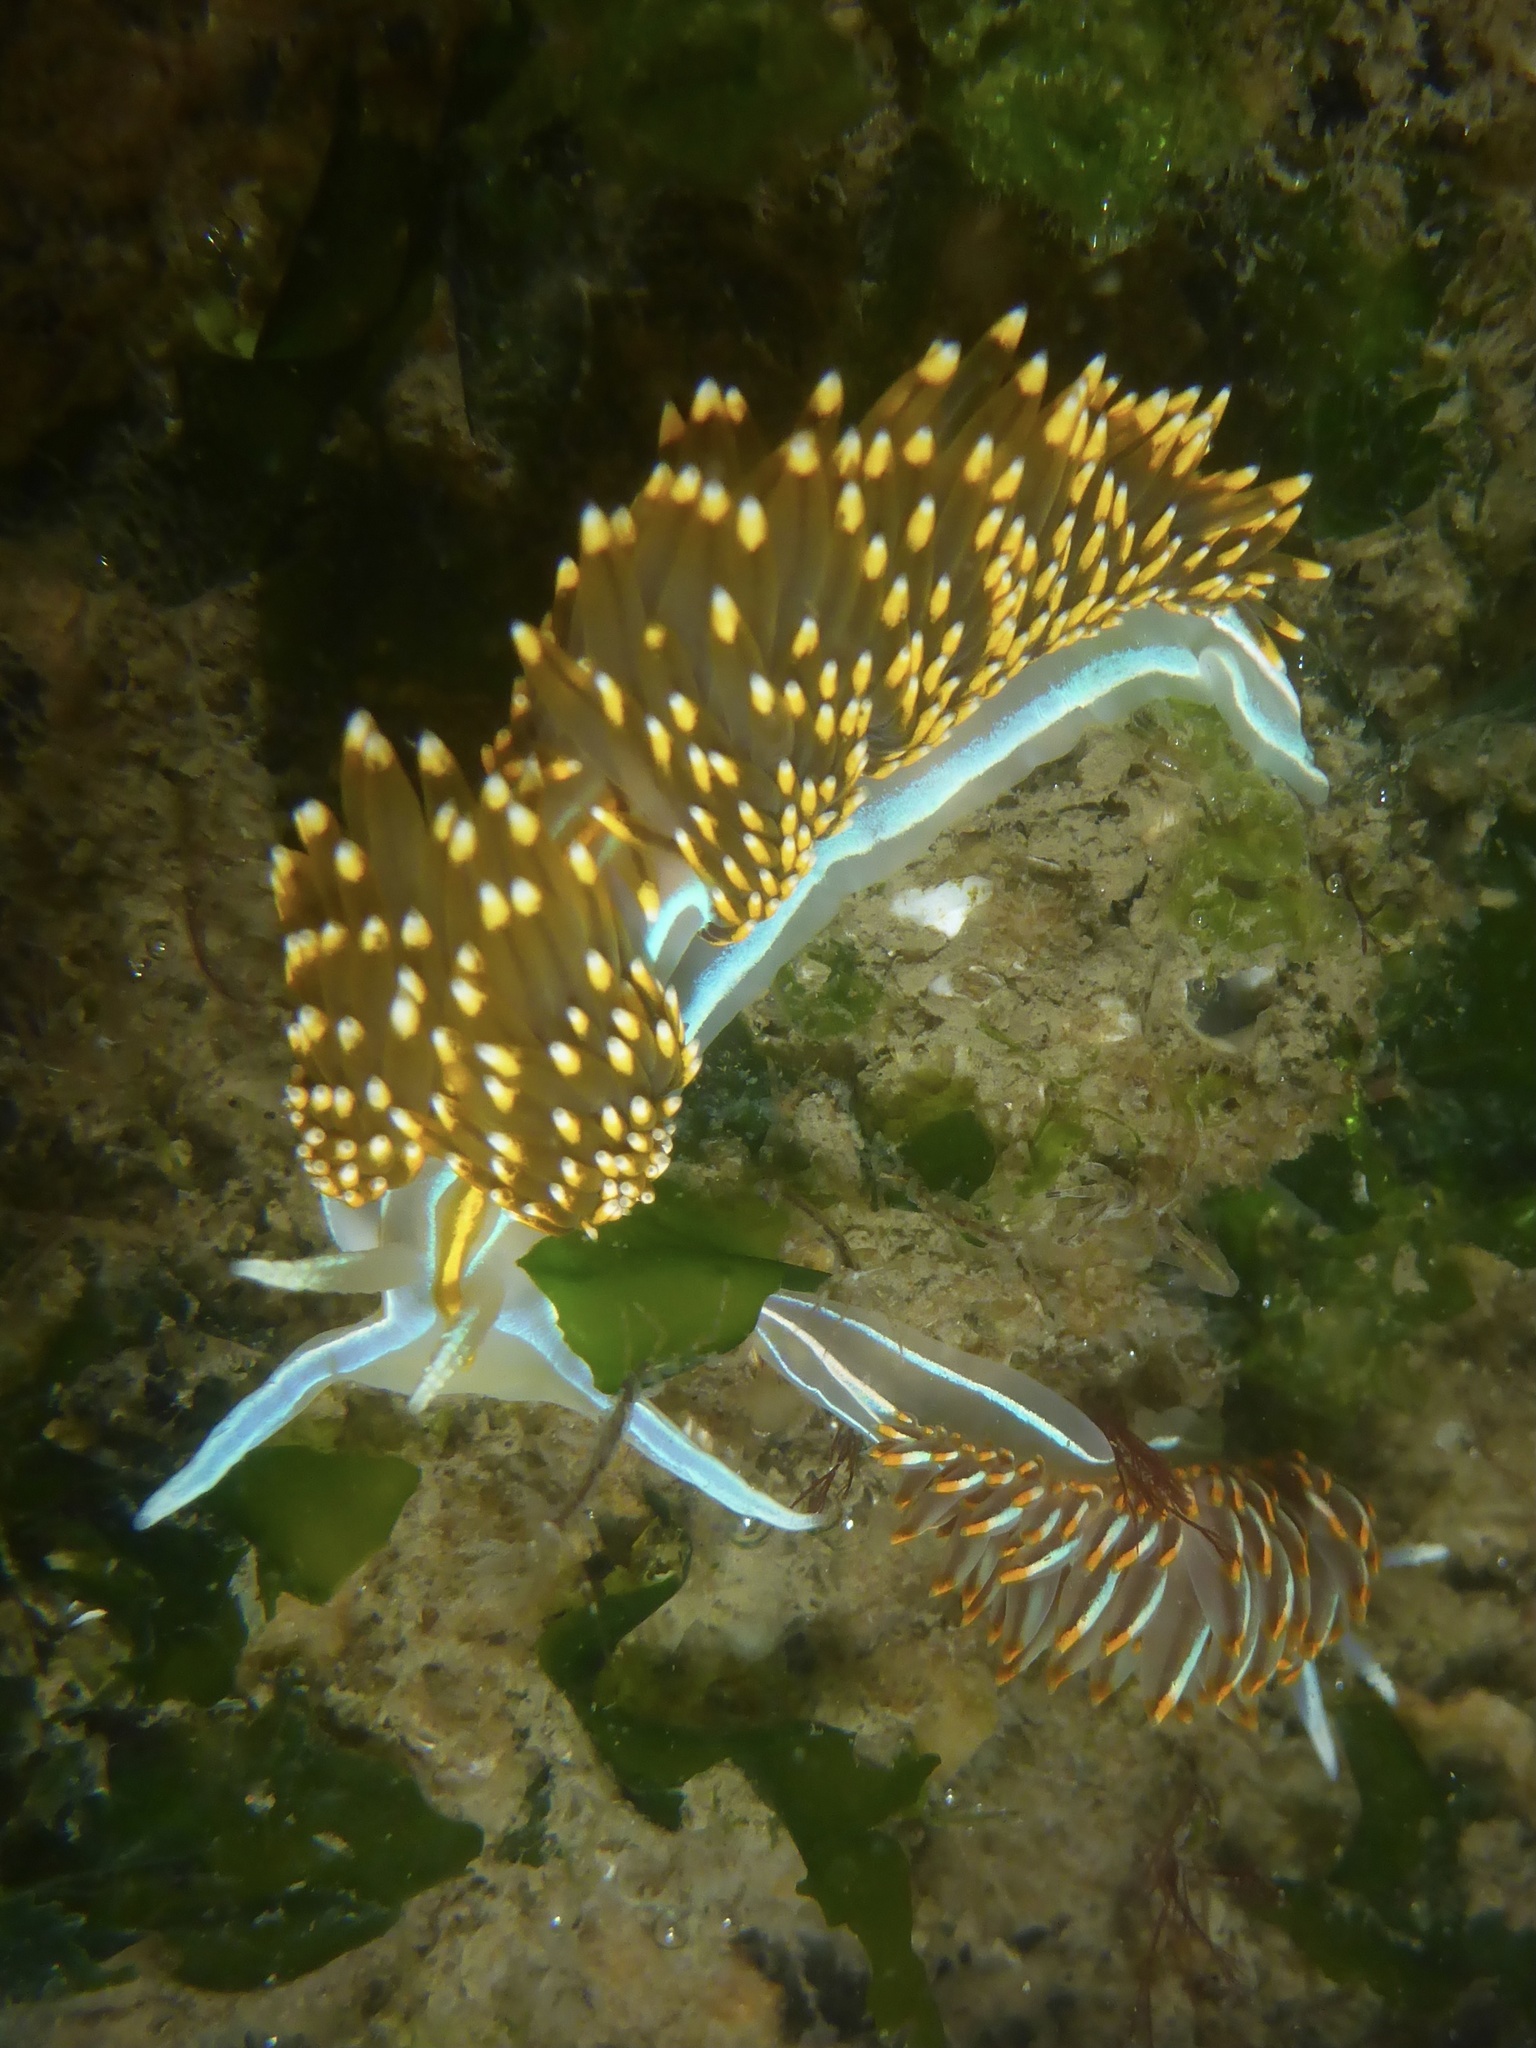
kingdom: Animalia
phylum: Mollusca
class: Gastropoda
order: Nudibranchia
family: Myrrhinidae
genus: Hermissenda
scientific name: Hermissenda opalescens
